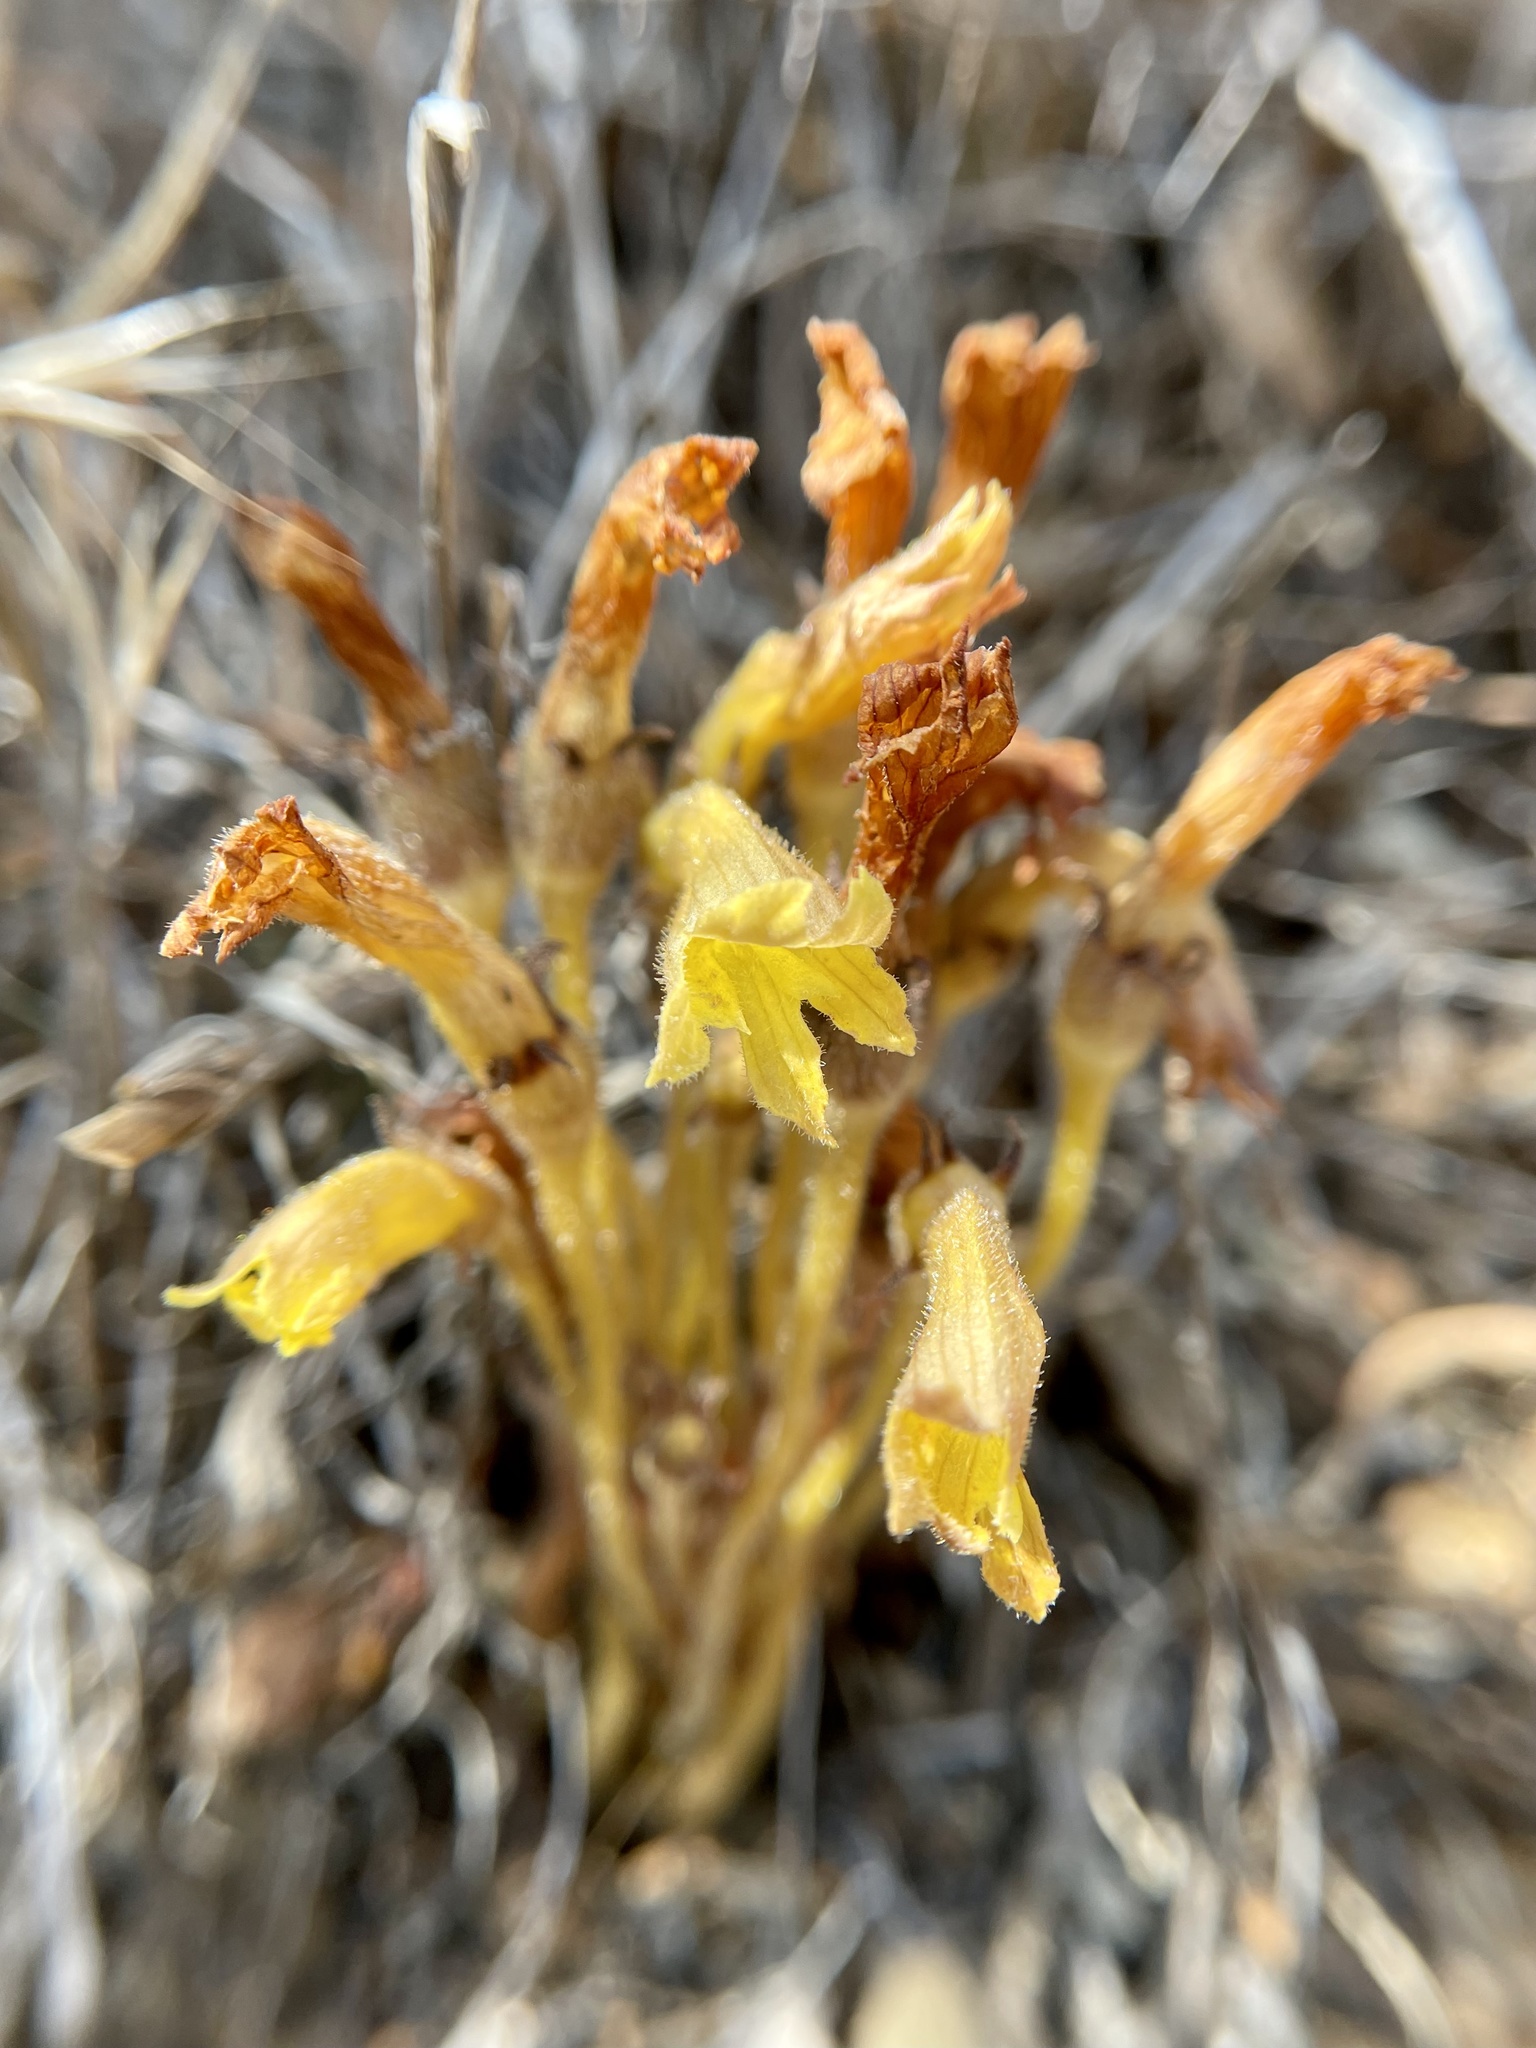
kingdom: Plantae
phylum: Tracheophyta
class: Magnoliopsida
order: Lamiales
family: Orobanchaceae
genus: Aphyllon
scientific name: Aphyllon franciscanum
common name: San francisco broomrape
